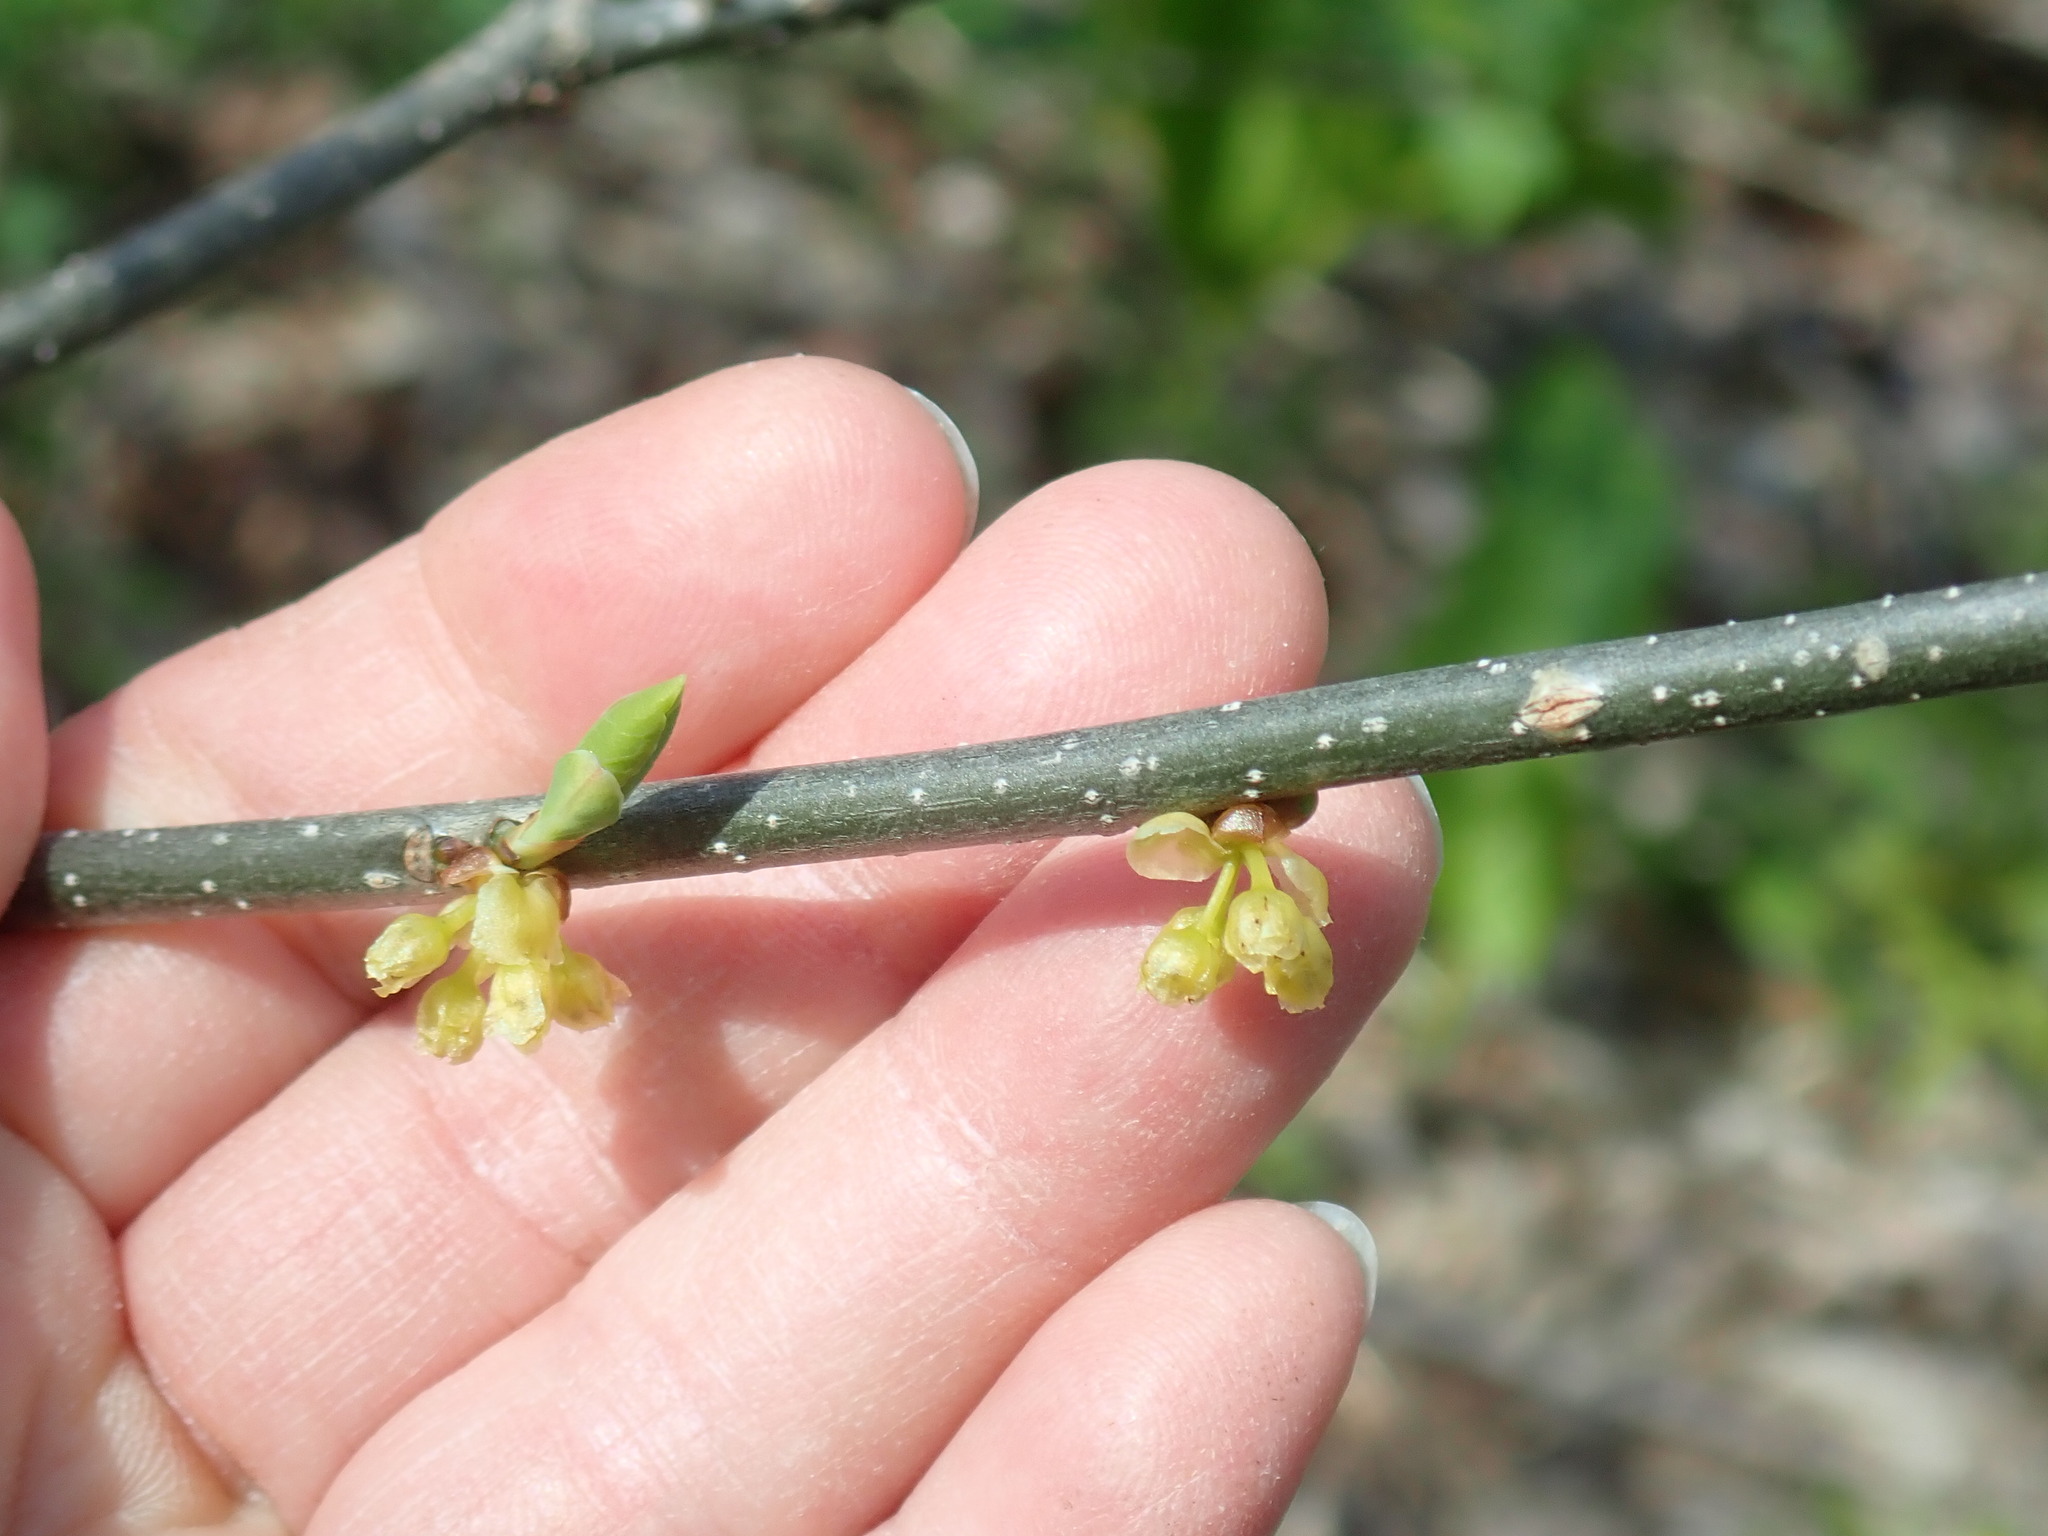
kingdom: Plantae
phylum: Tracheophyta
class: Magnoliopsida
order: Laurales
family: Lauraceae
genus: Lindera
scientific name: Lindera benzoin
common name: Spicebush
